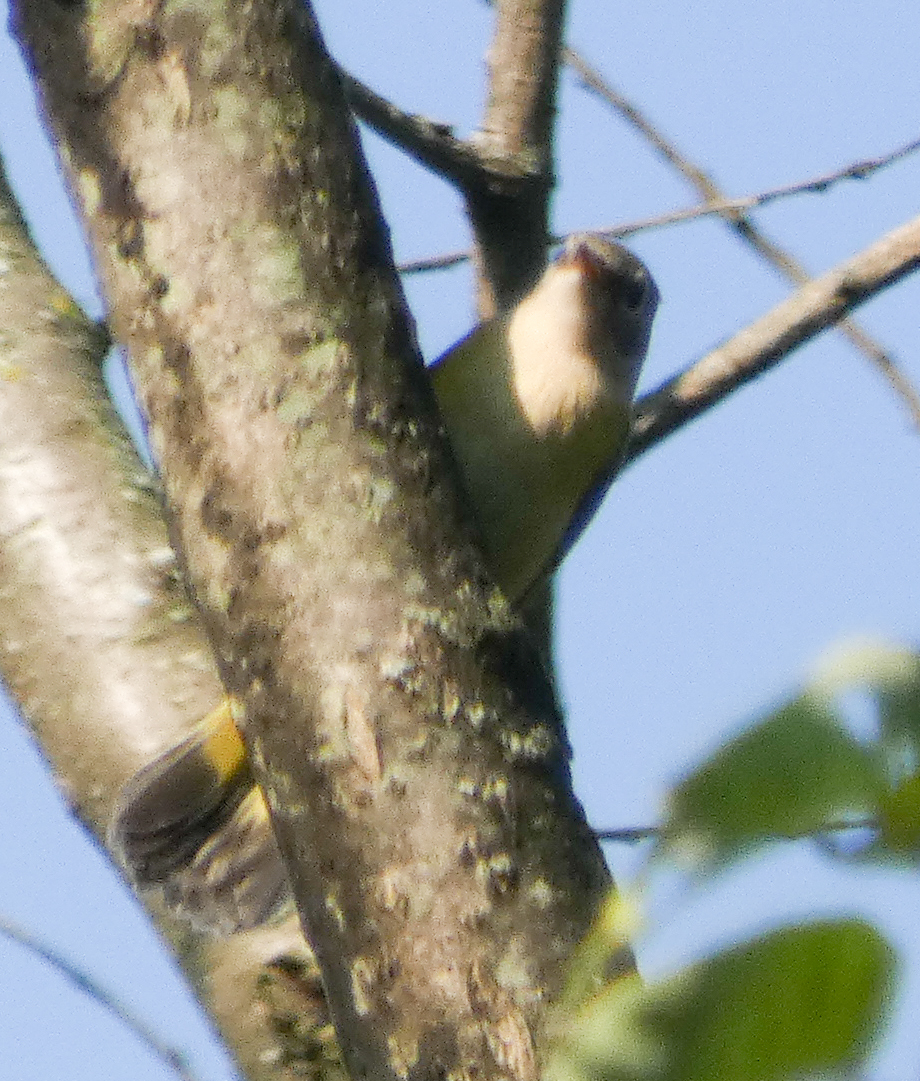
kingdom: Animalia
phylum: Chordata
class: Aves
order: Passeriformes
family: Parulidae
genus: Setophaga
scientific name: Setophaga ruticilla
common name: American redstart
